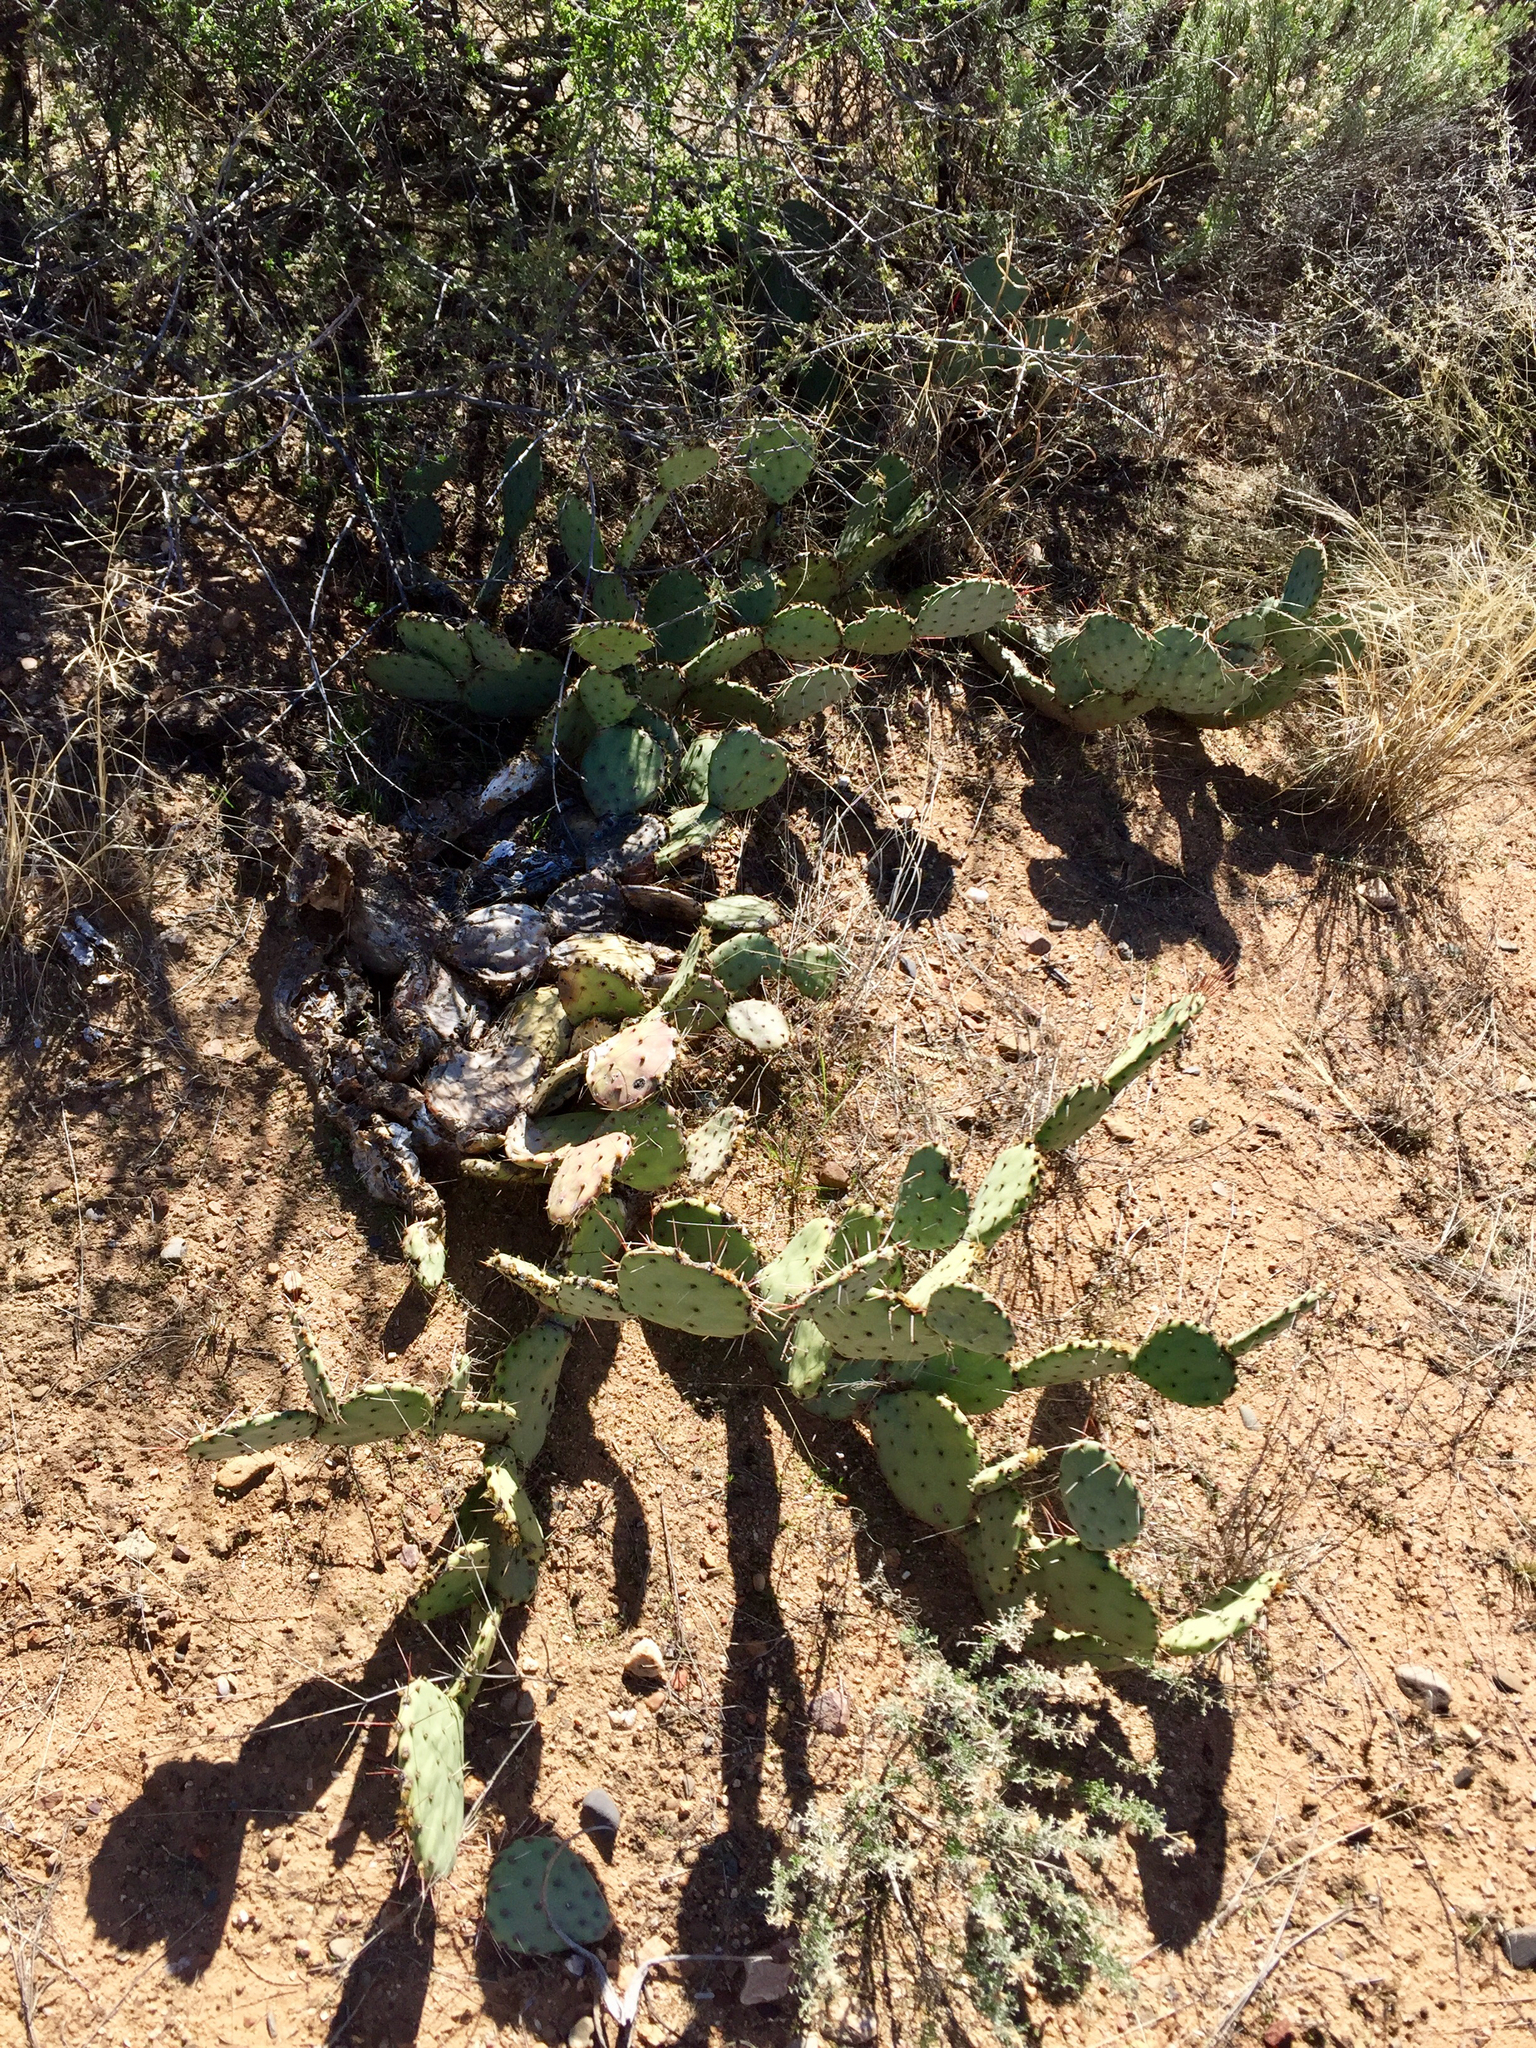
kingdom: Plantae
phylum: Tracheophyta
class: Magnoliopsida
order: Caryophyllales
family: Cactaceae
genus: Opuntia
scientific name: Opuntia phaeacantha
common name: New mexico prickly-pear
